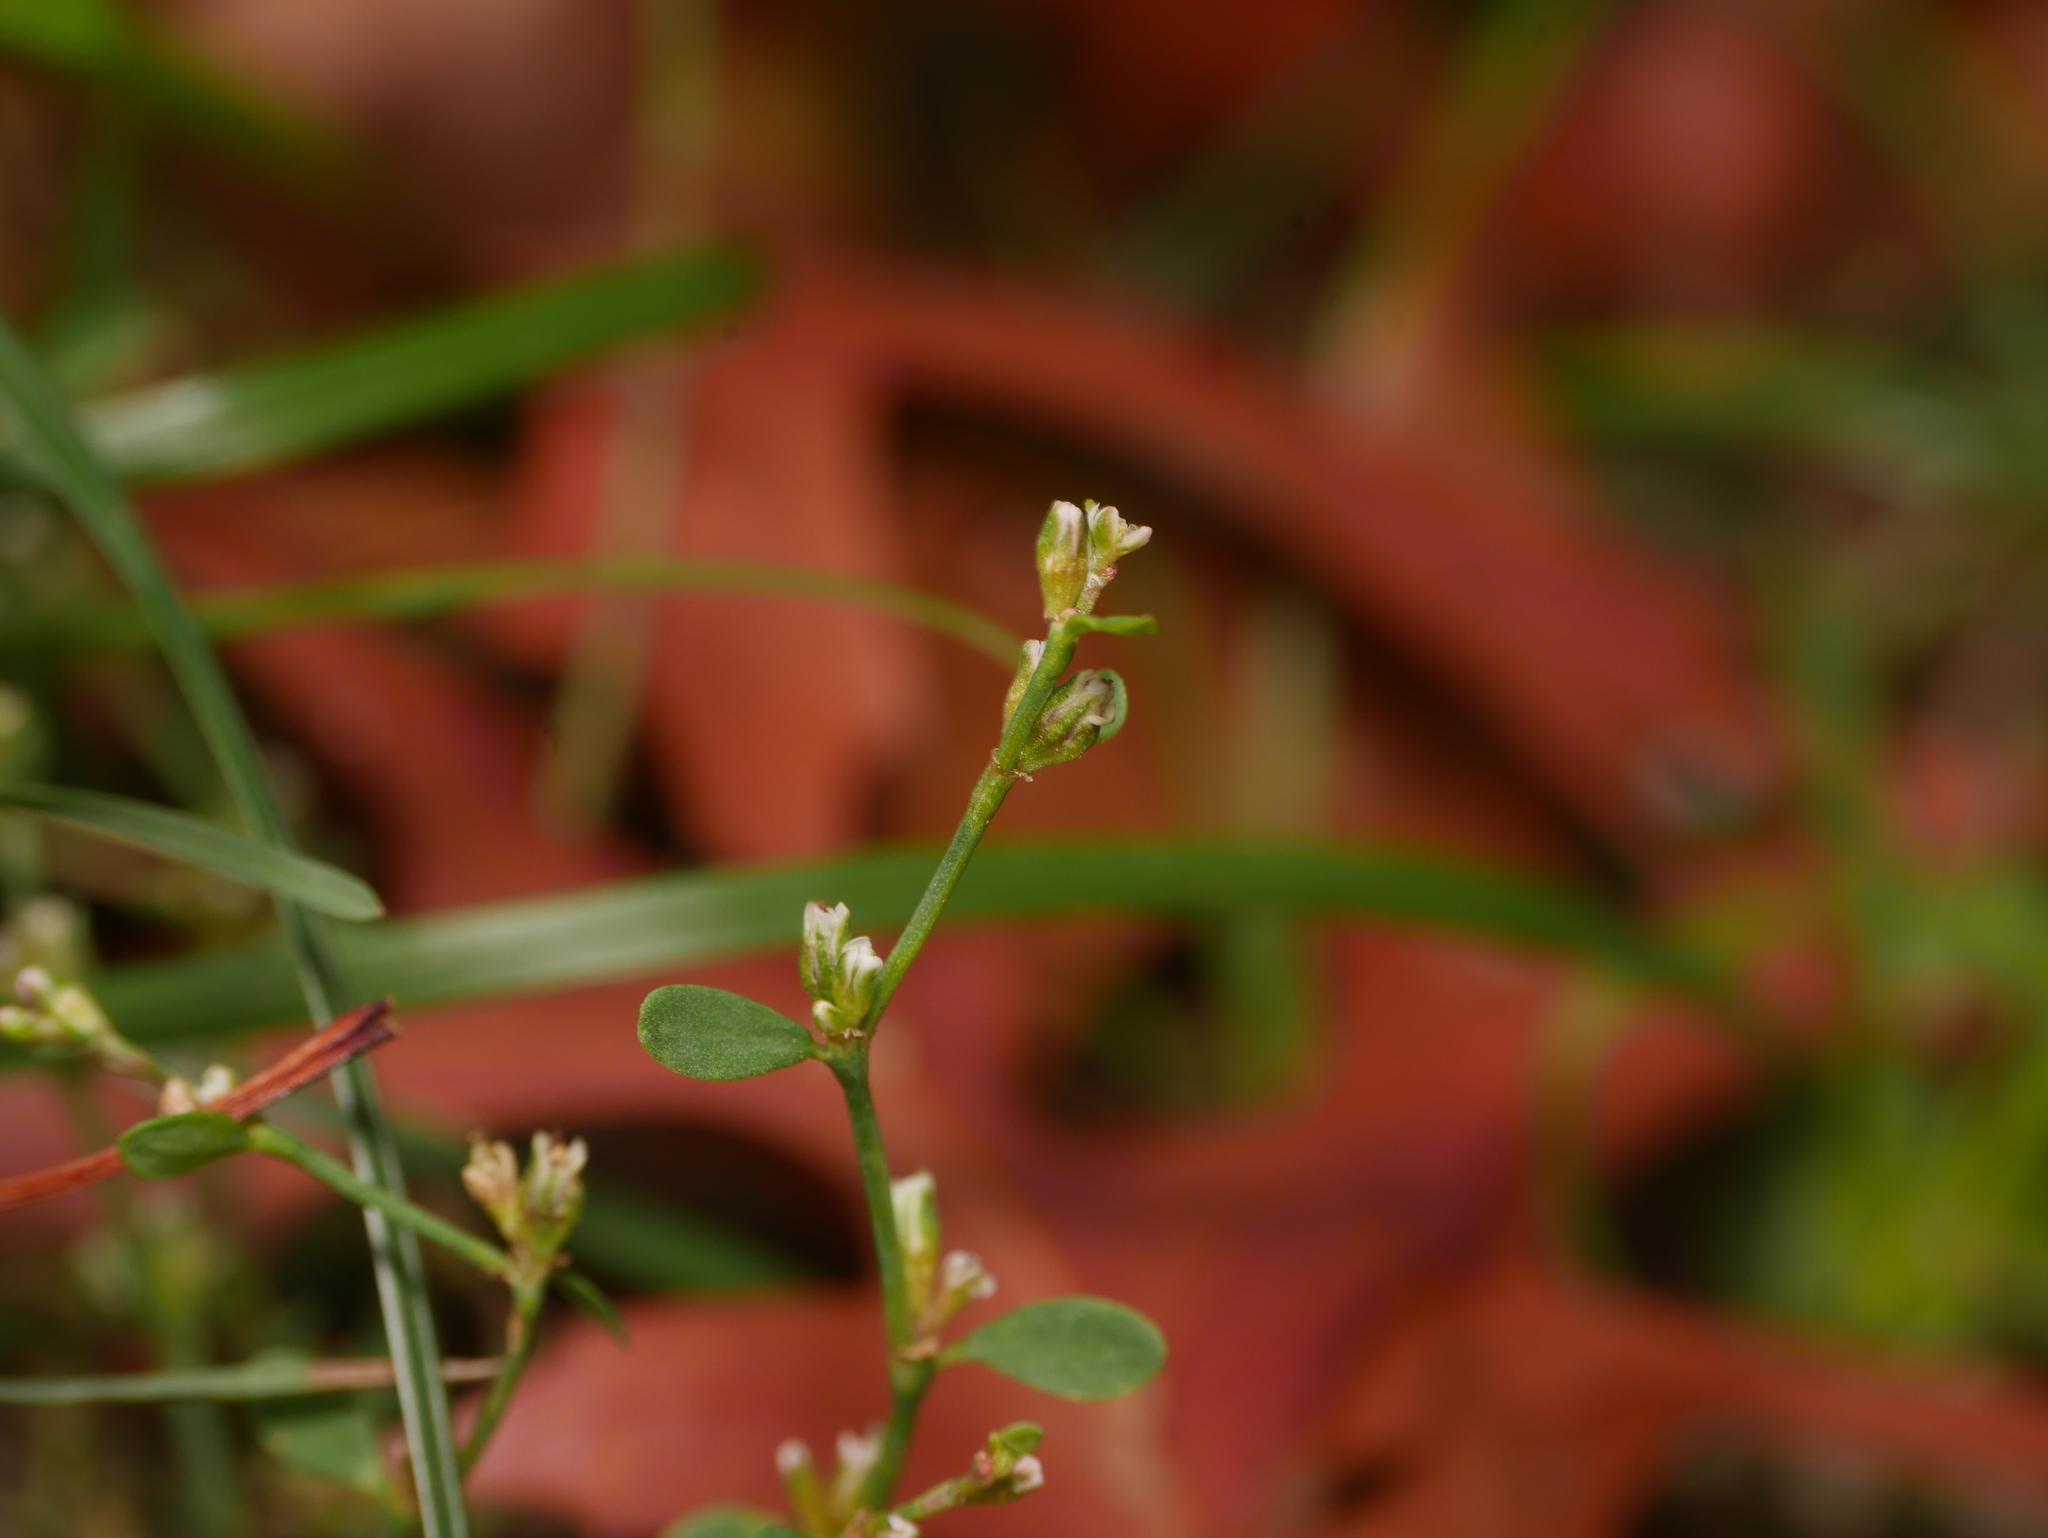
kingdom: Plantae
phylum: Tracheophyta
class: Magnoliopsida
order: Caryophyllales
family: Polygonaceae
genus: Polygonum
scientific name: Polygonum aviculare
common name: Prostrate knotweed
